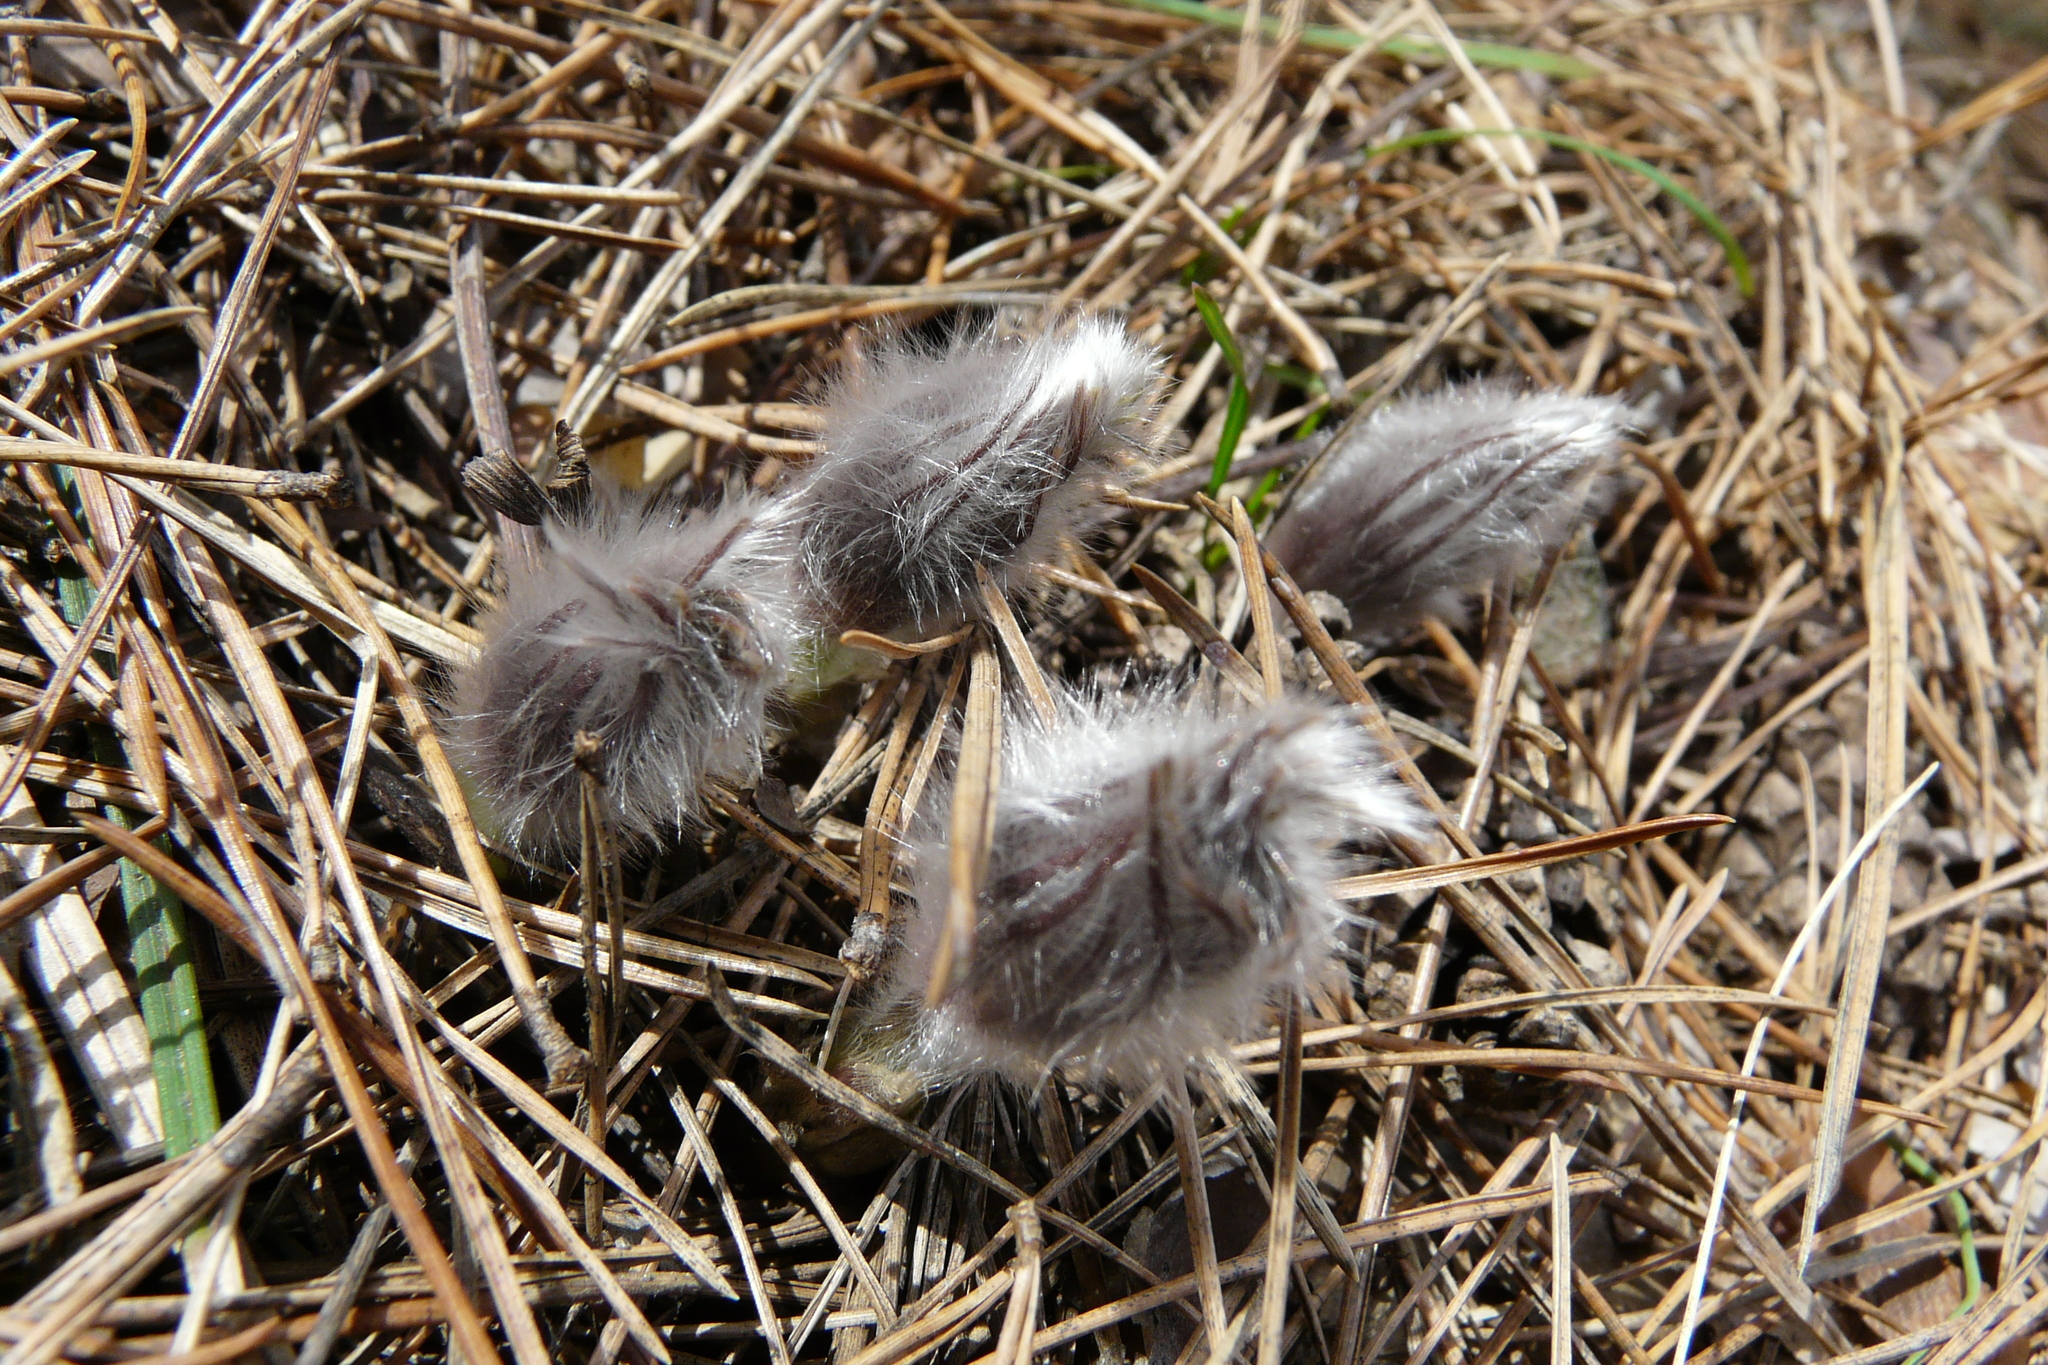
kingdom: Plantae
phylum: Tracheophyta
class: Magnoliopsida
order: Ranunculales
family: Ranunculaceae
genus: Pulsatilla
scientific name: Pulsatilla patens
